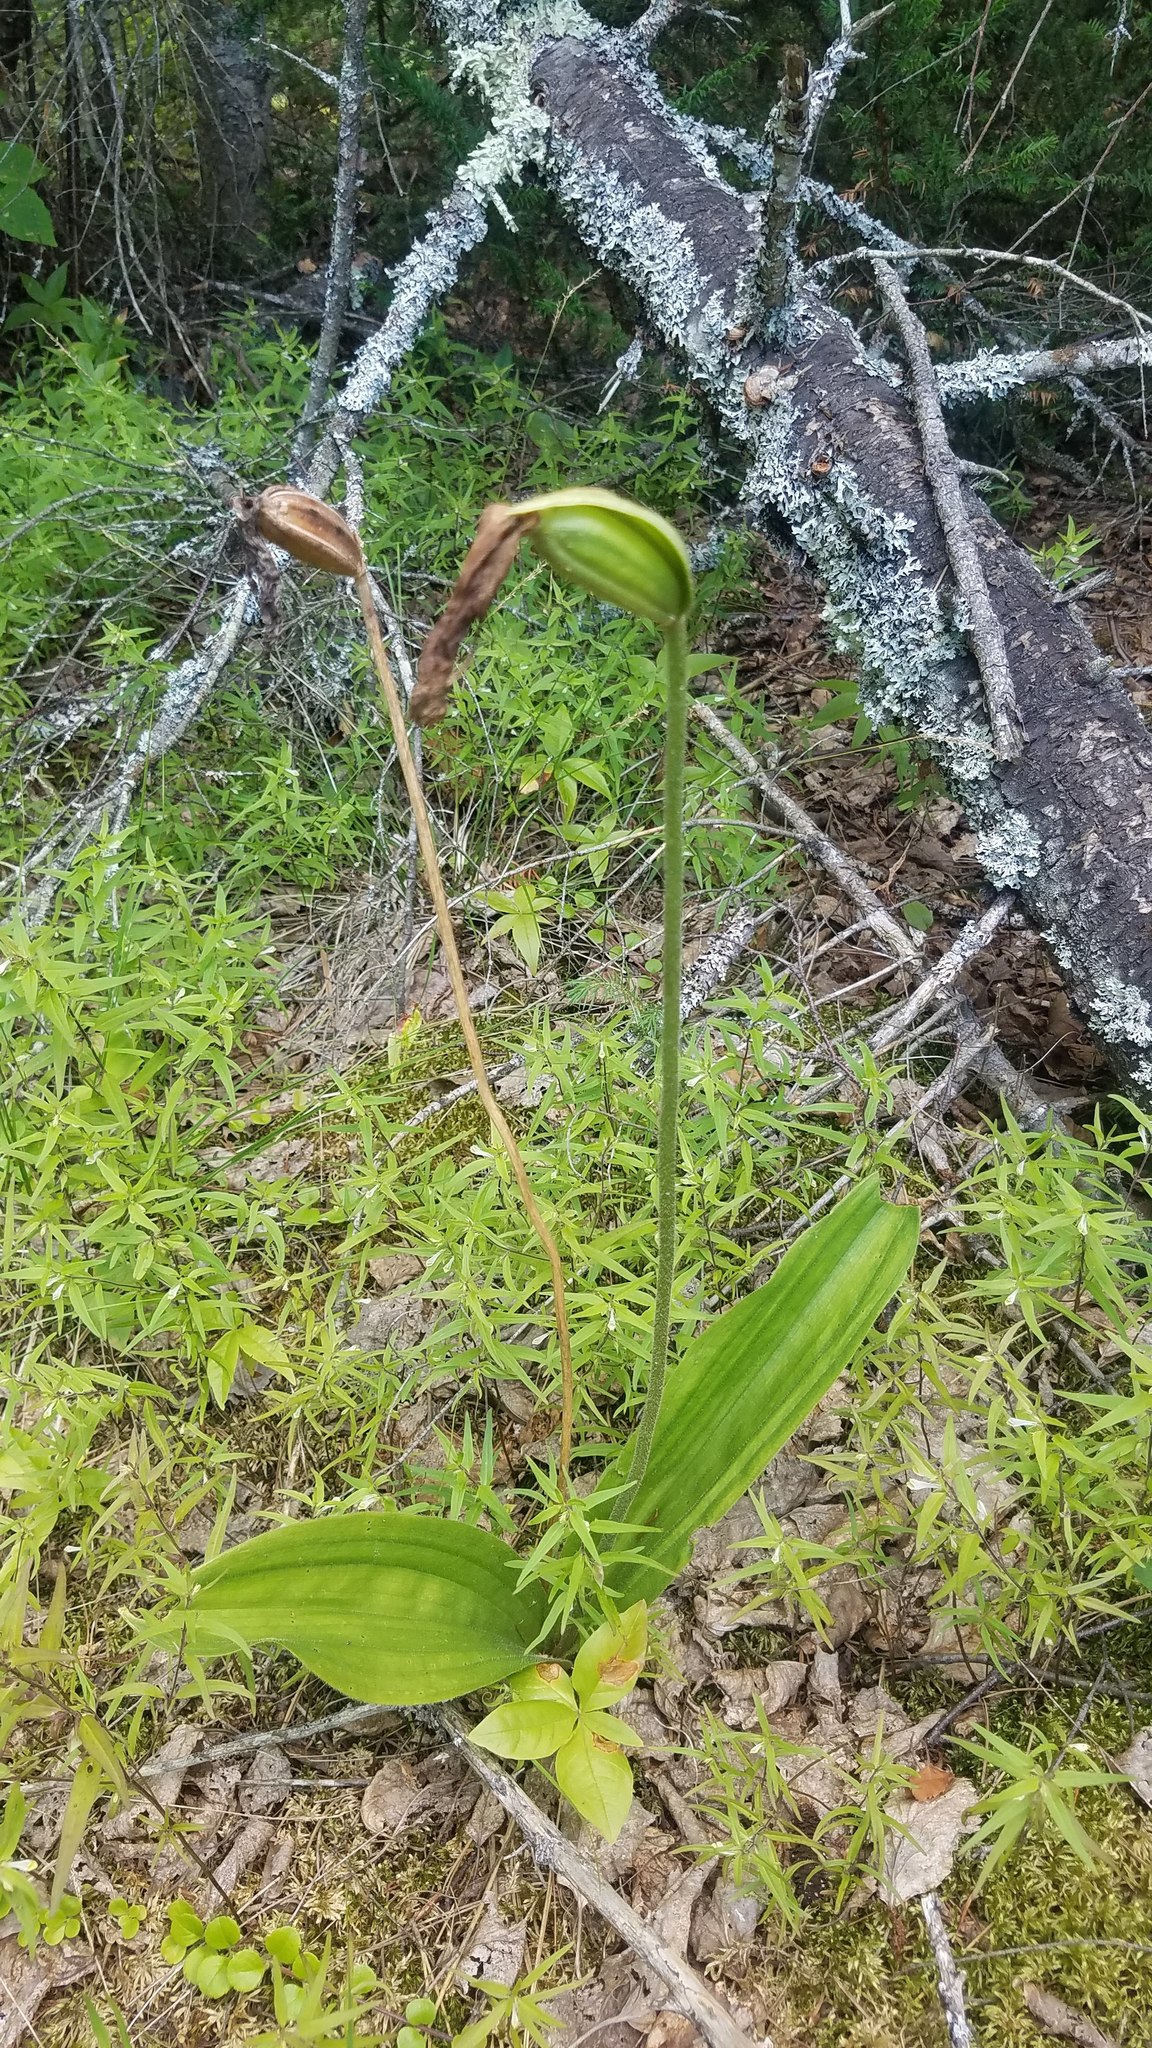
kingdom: Plantae
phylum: Tracheophyta
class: Liliopsida
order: Asparagales
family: Orchidaceae
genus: Cypripedium
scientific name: Cypripedium acaule
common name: Pink lady's-slipper
